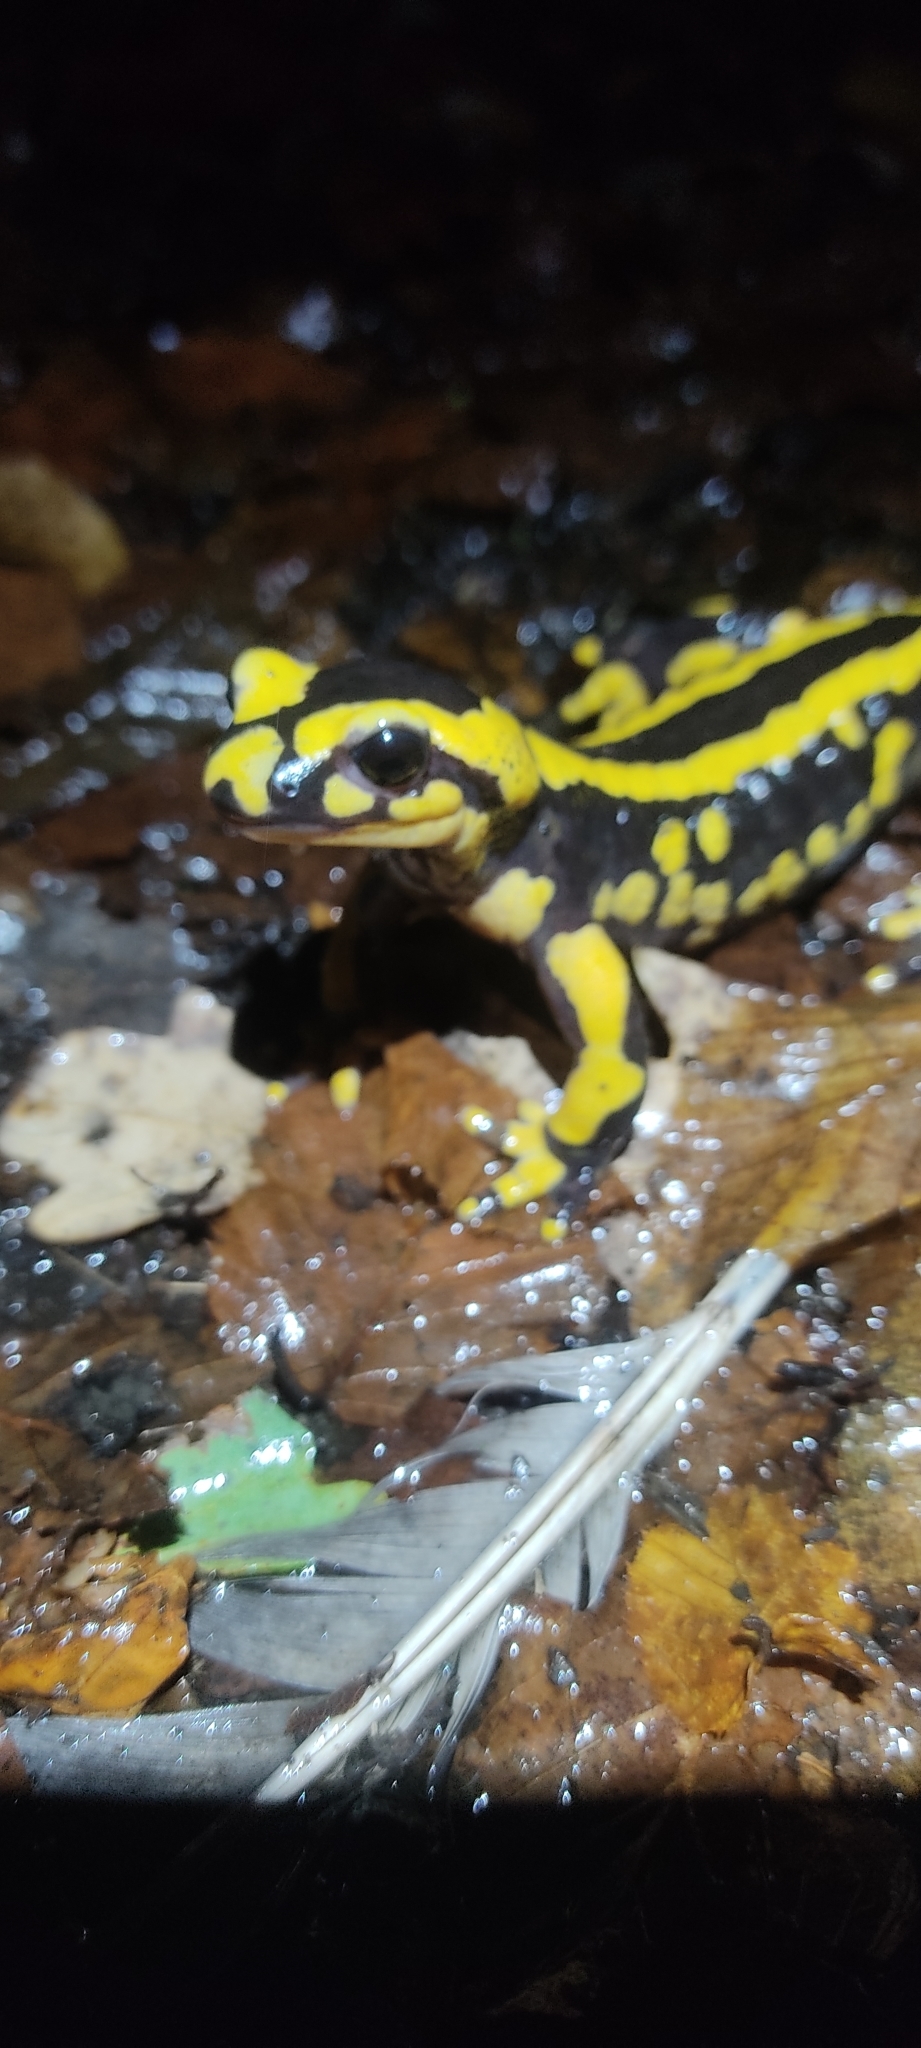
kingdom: Animalia
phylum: Chordata
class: Amphibia
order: Caudata
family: Salamandridae
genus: Salamandra
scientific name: Salamandra salamandra
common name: Fire salamander
